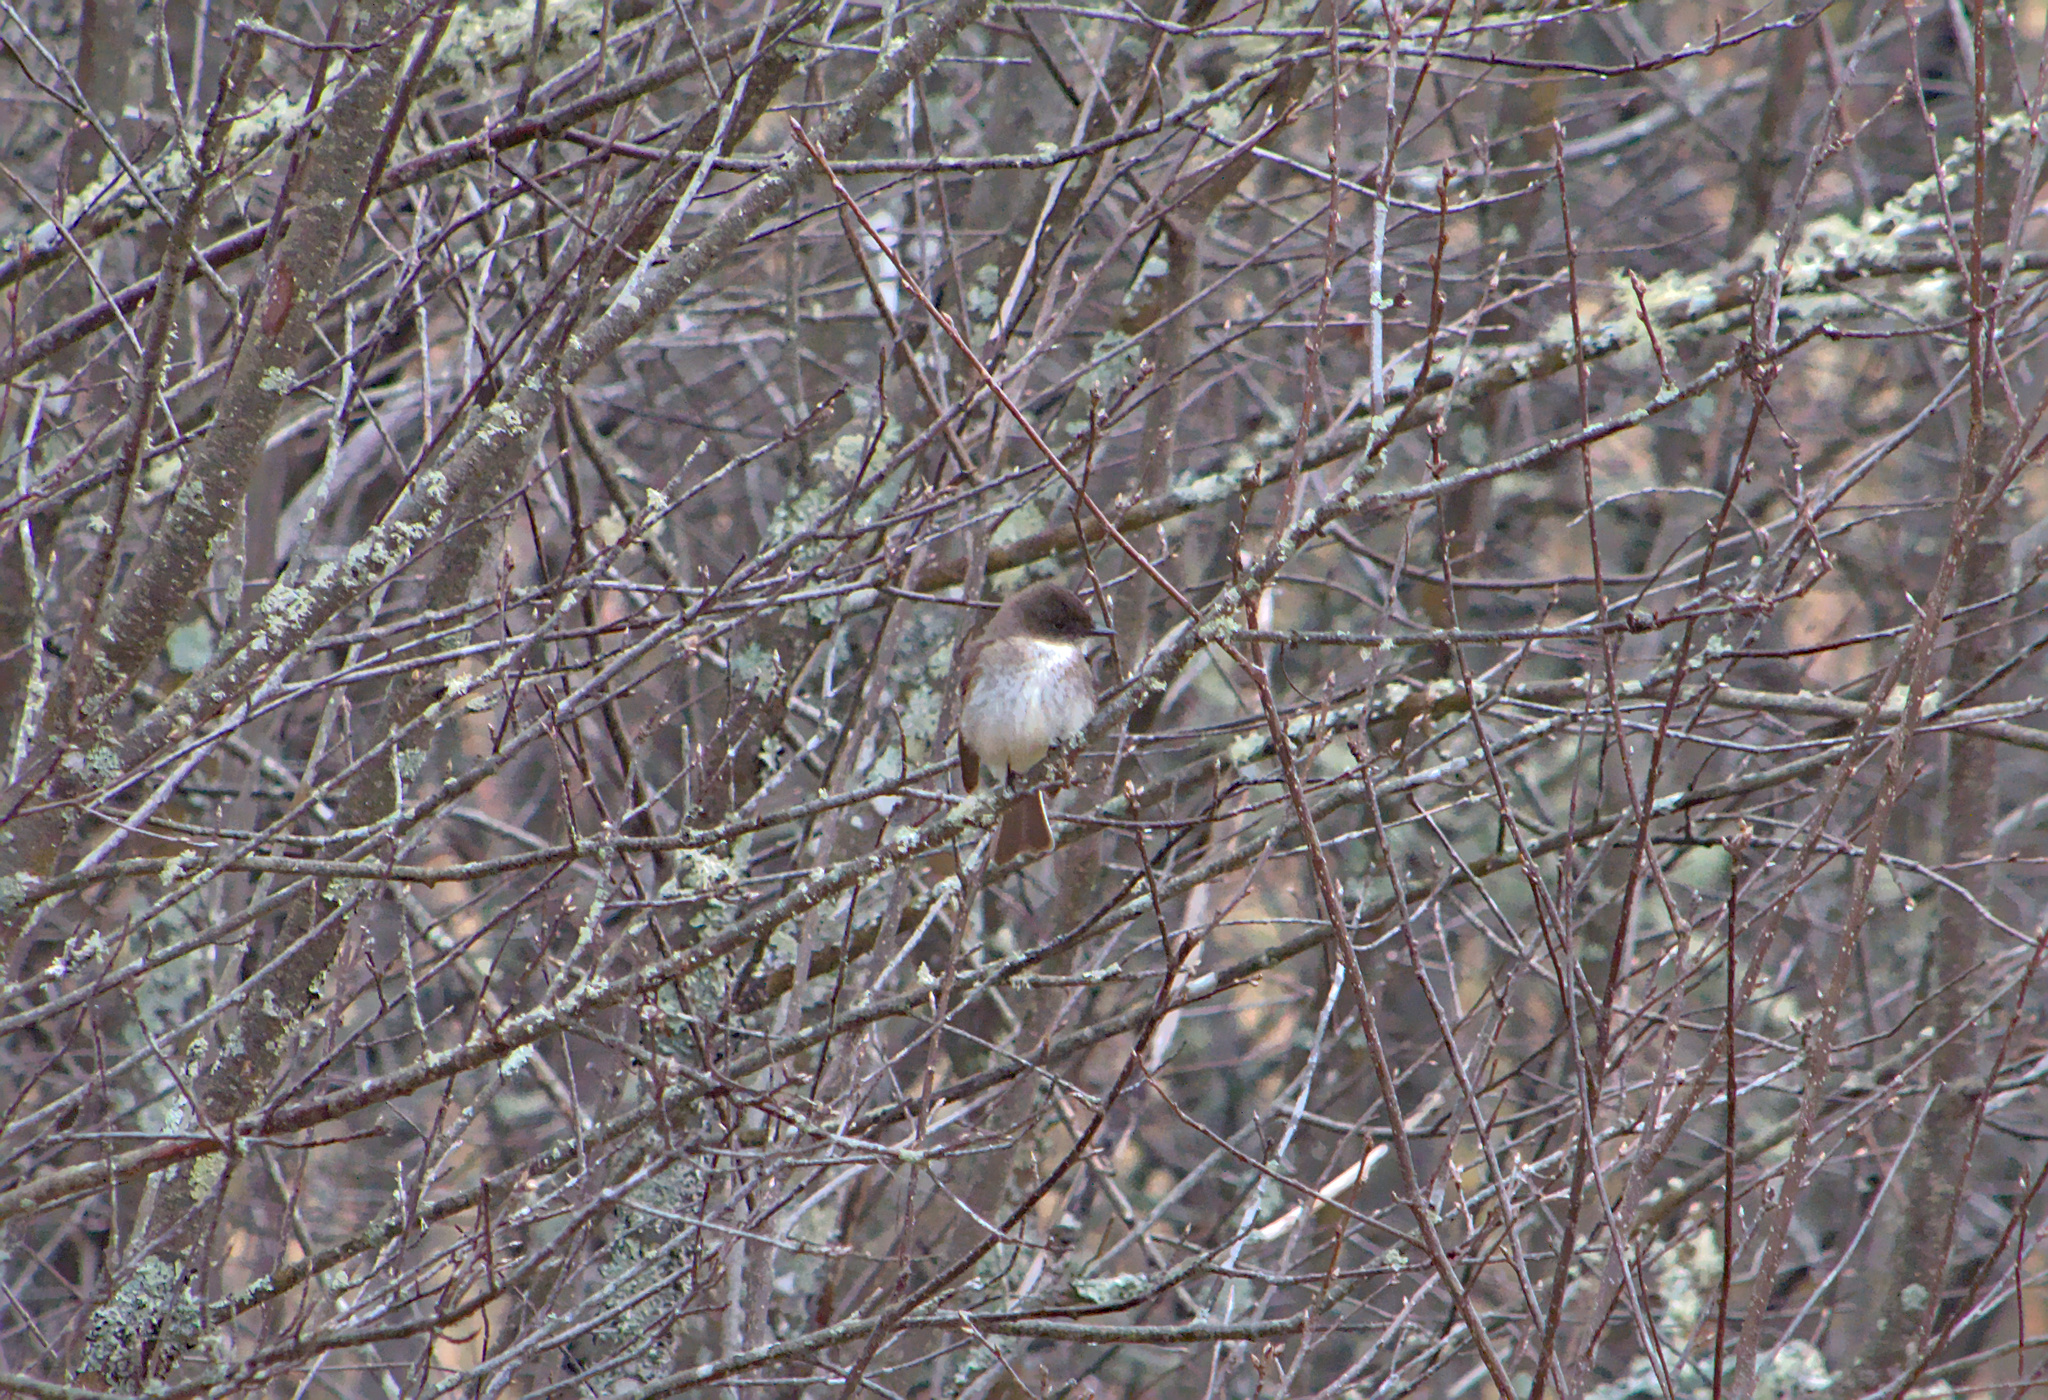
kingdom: Animalia
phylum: Chordata
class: Aves
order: Passeriformes
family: Tyrannidae
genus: Sayornis
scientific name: Sayornis phoebe
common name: Eastern phoebe
